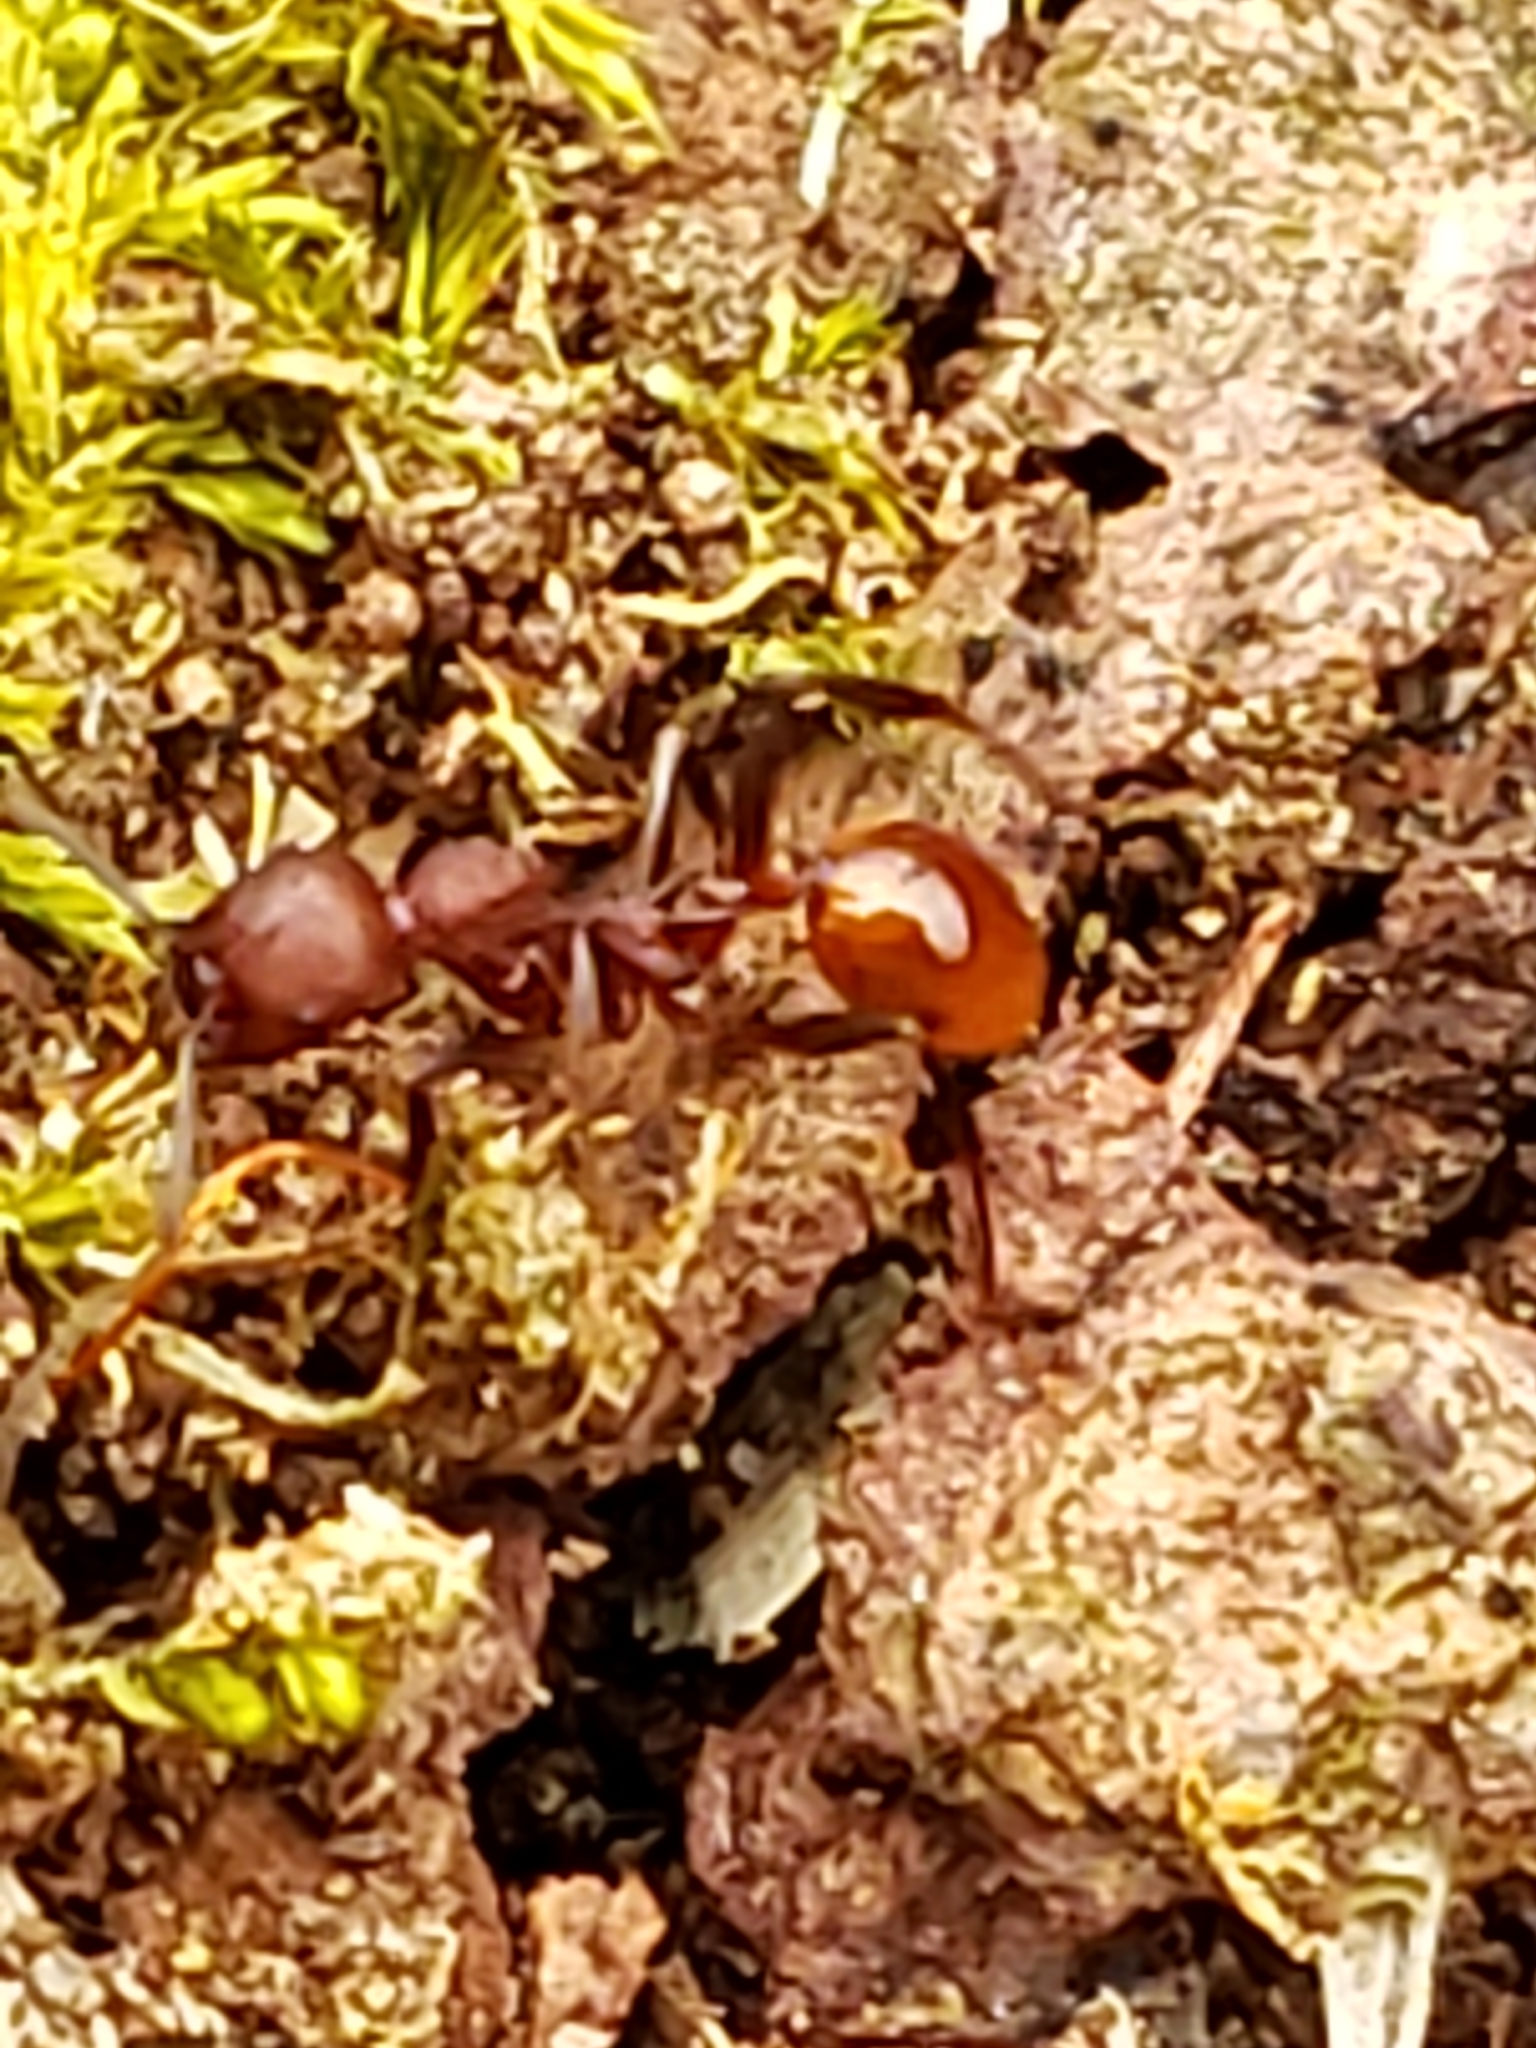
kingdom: Animalia
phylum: Arthropoda
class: Insecta
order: Hymenoptera
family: Formicidae
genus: Aphaenogaster
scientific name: Aphaenogaster tennesseensis
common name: Tennessee thread-waisted ant
